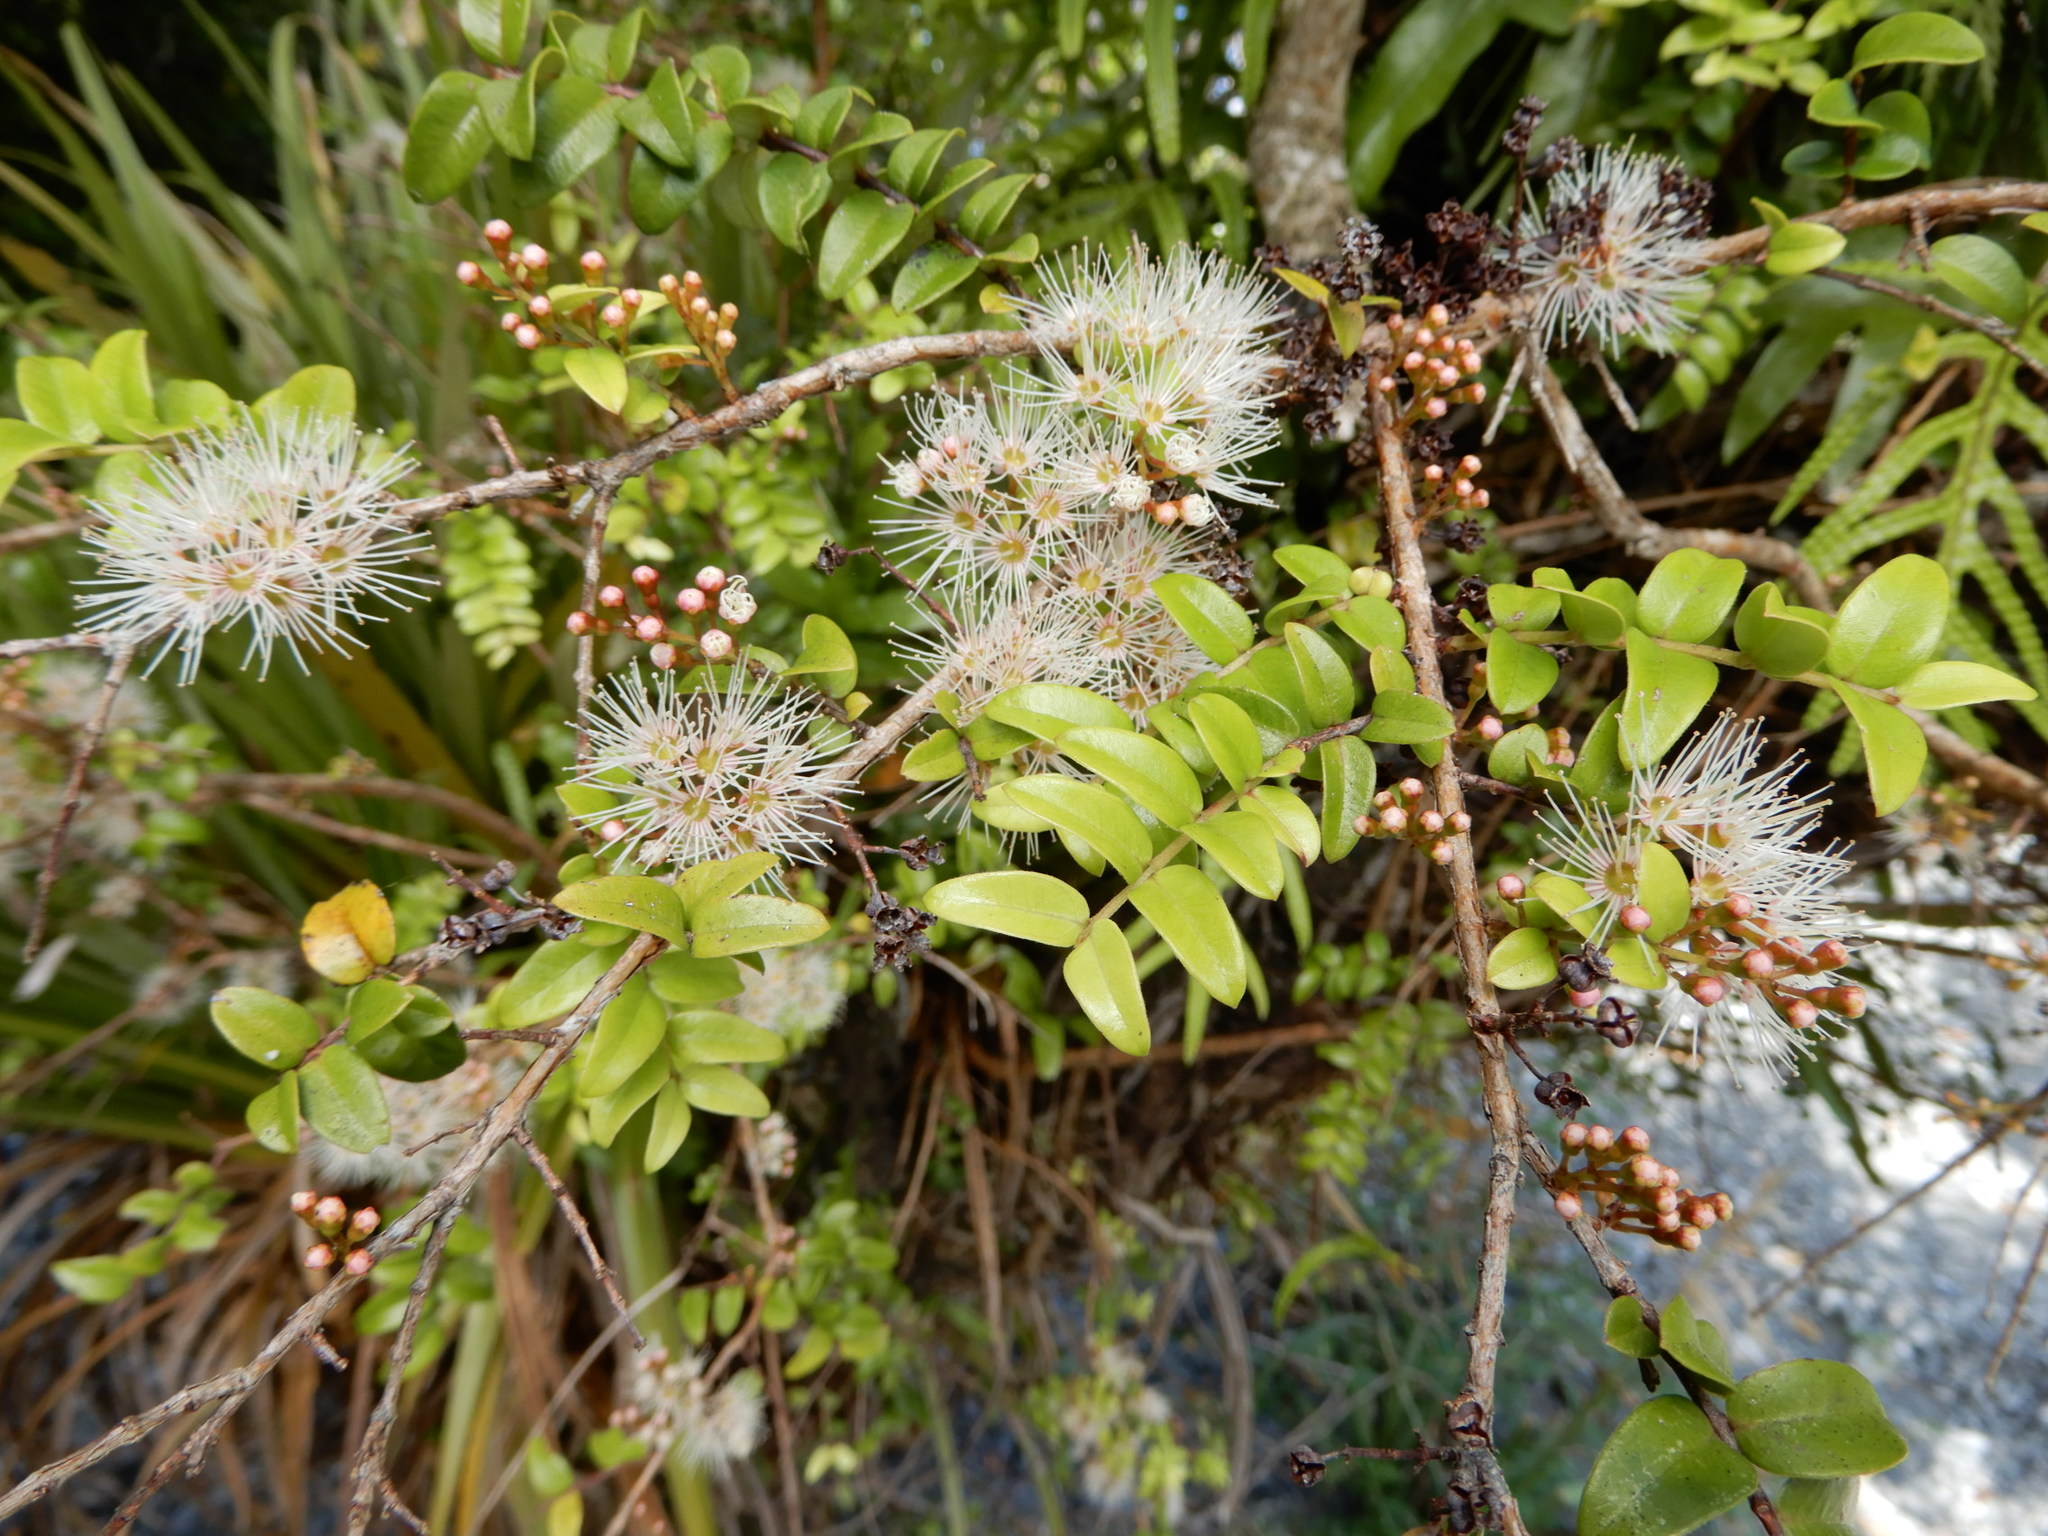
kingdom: Plantae
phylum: Tracheophyta
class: Magnoliopsida
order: Myrtales
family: Myrtaceae
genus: Metrosideros
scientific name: Metrosideros diffusa
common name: Small ratavine
